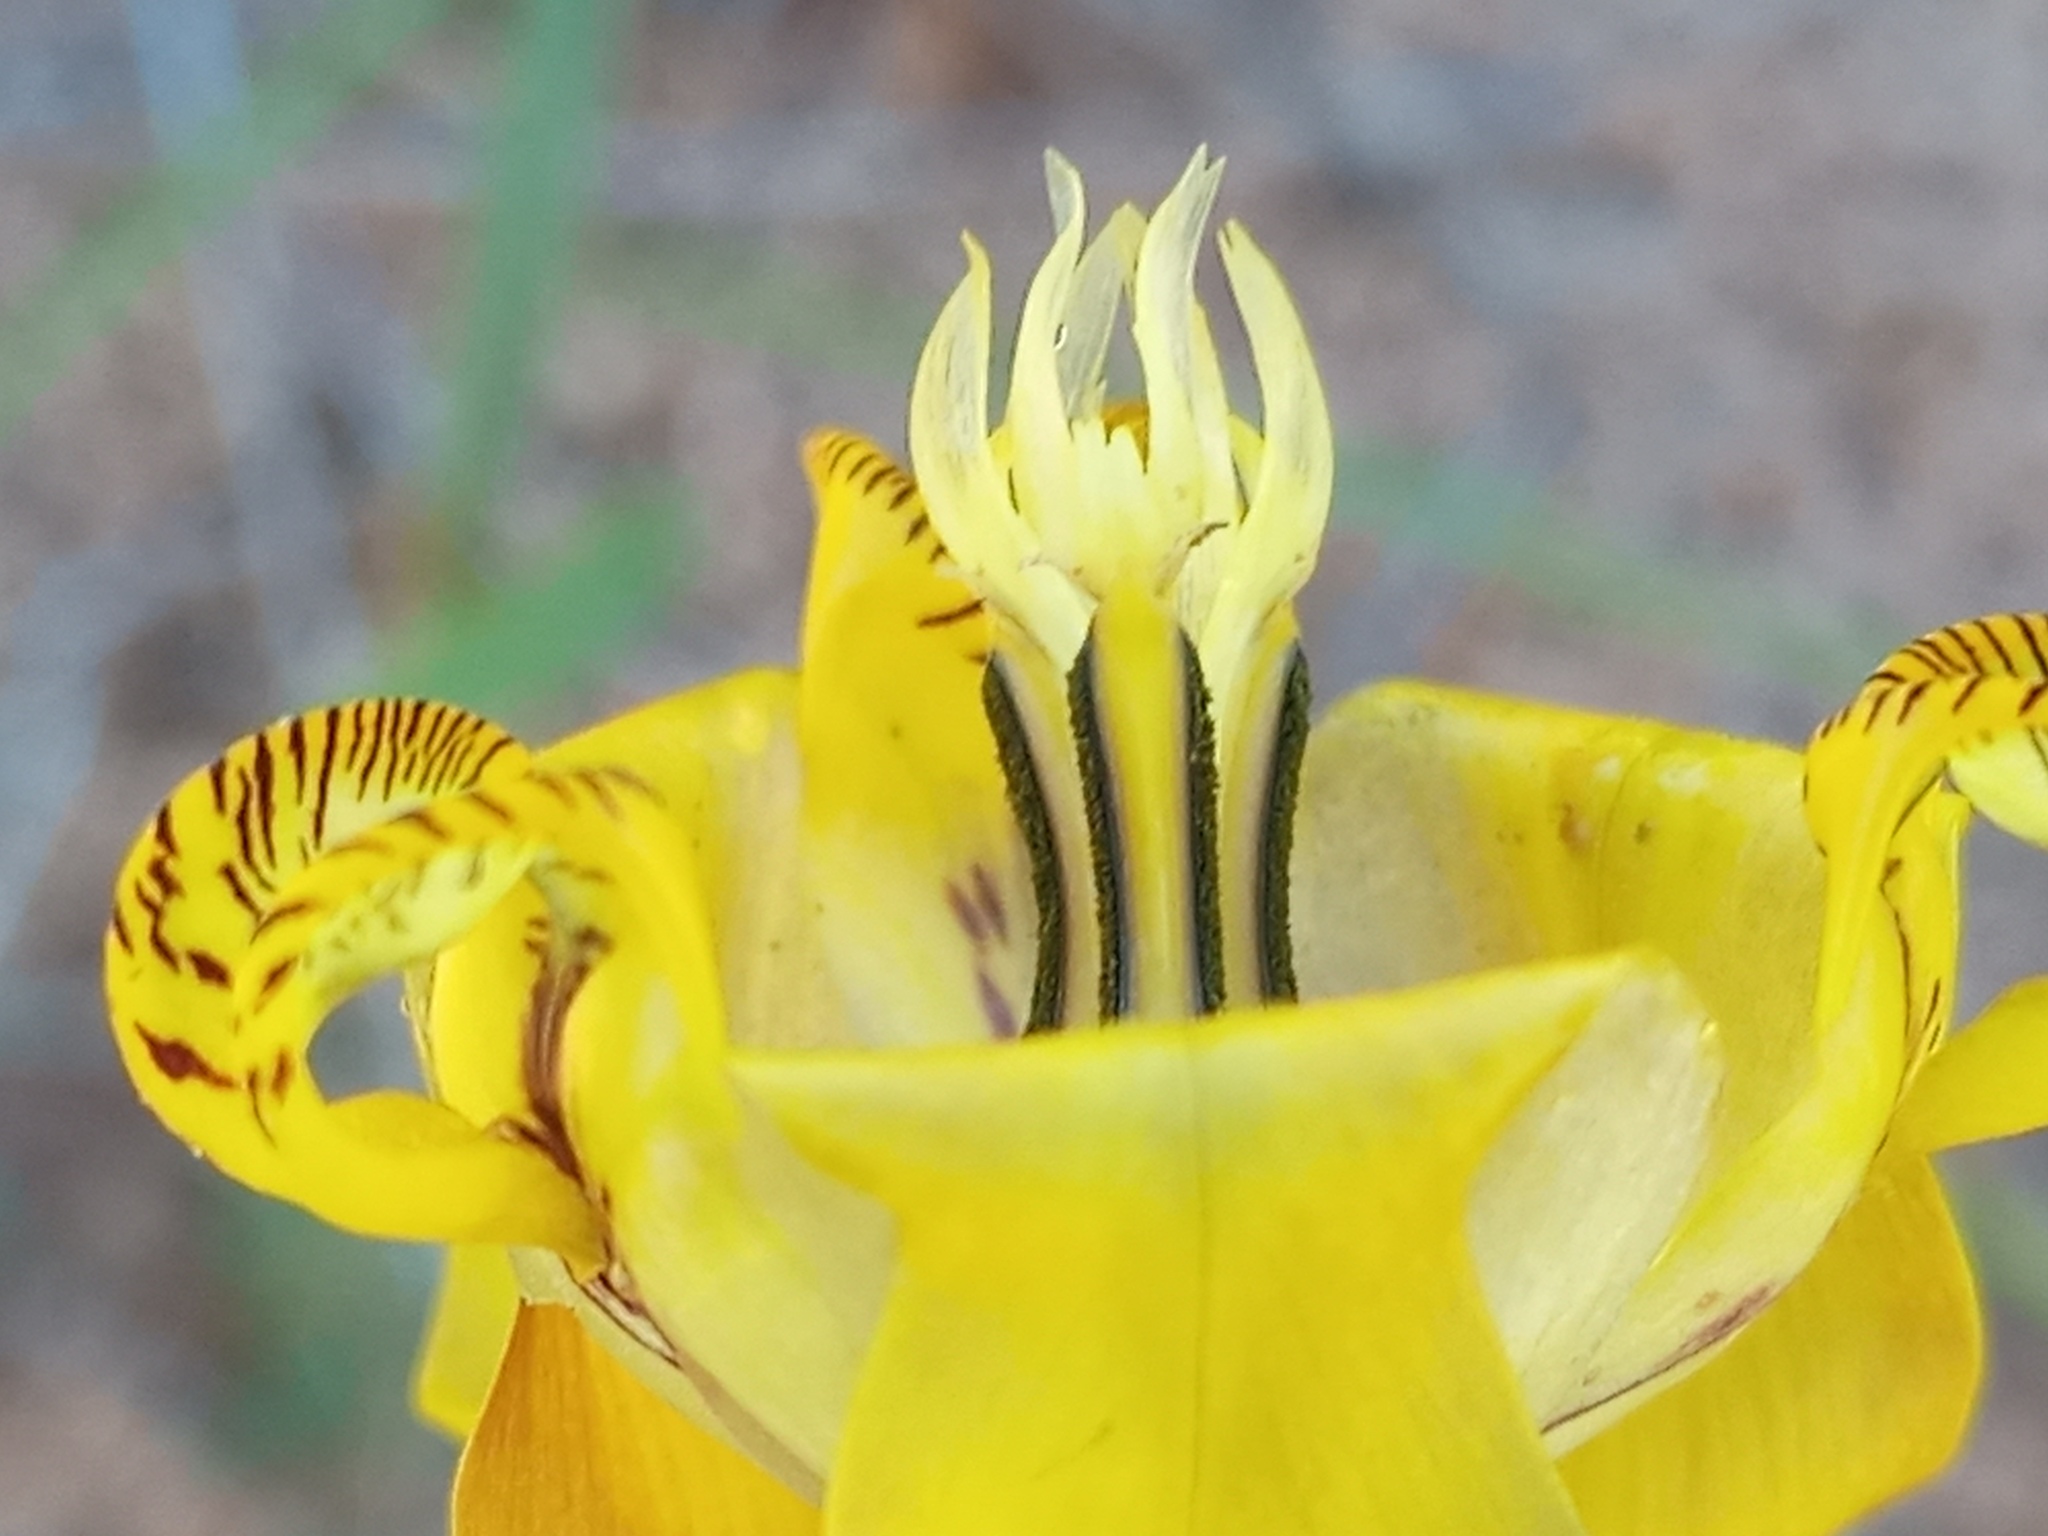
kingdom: Plantae
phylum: Tracheophyta
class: Liliopsida
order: Asparagales
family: Iridaceae
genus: Cypella
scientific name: Cypella laeta
